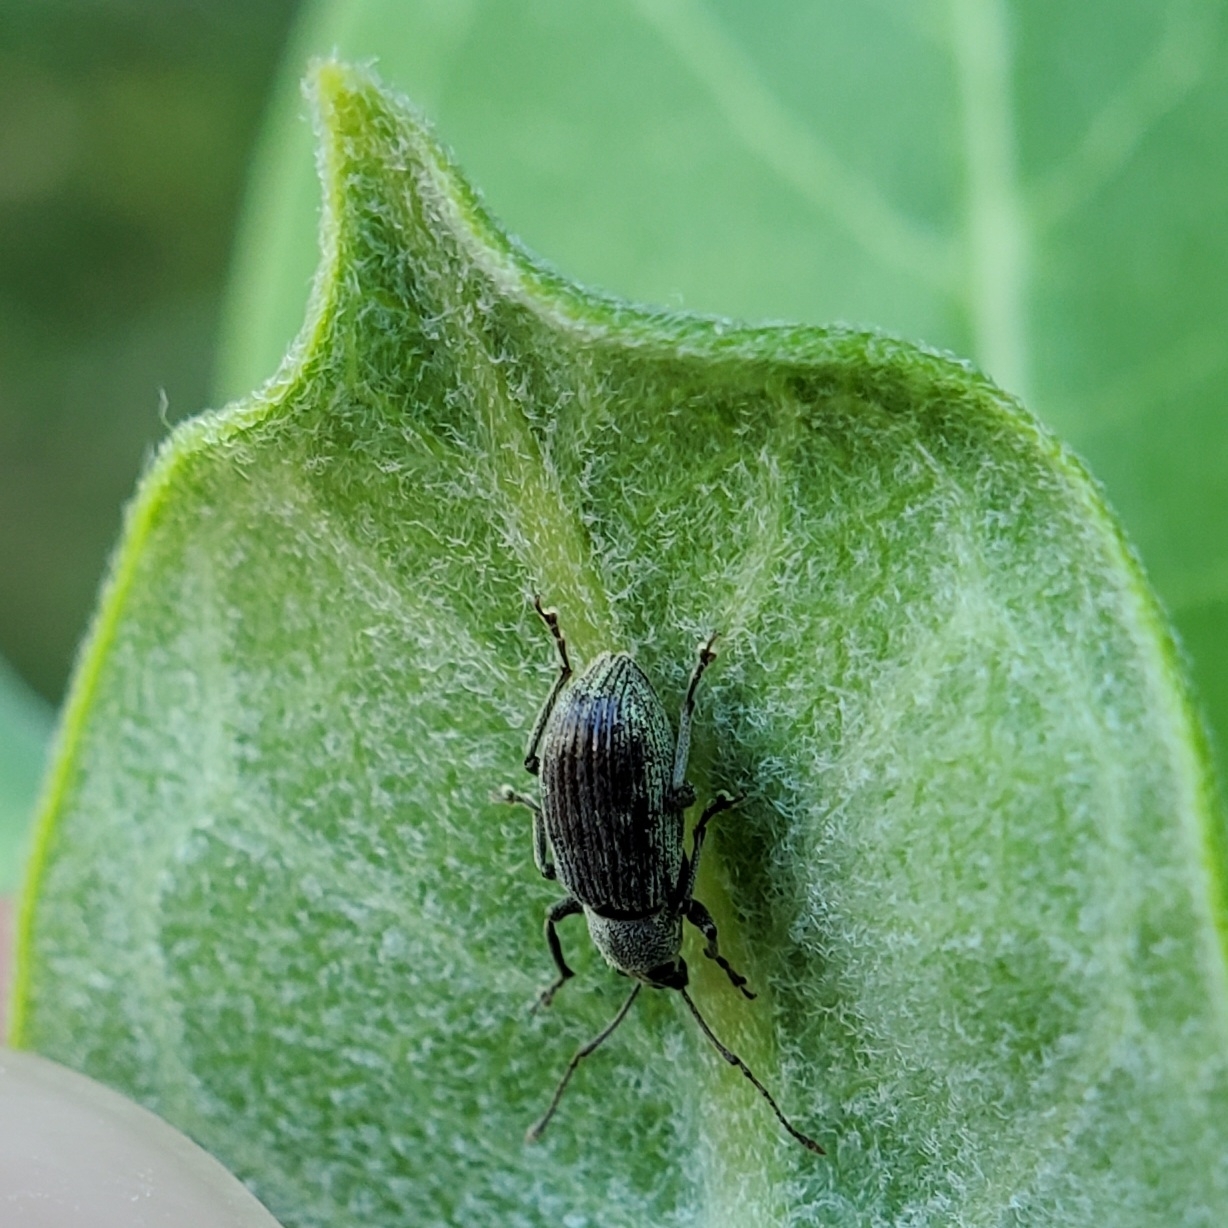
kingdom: Animalia
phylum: Arthropoda
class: Insecta
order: Coleoptera
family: Curculionidae
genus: Cyrtepistomus
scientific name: Cyrtepistomus castaneus
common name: Weevil
